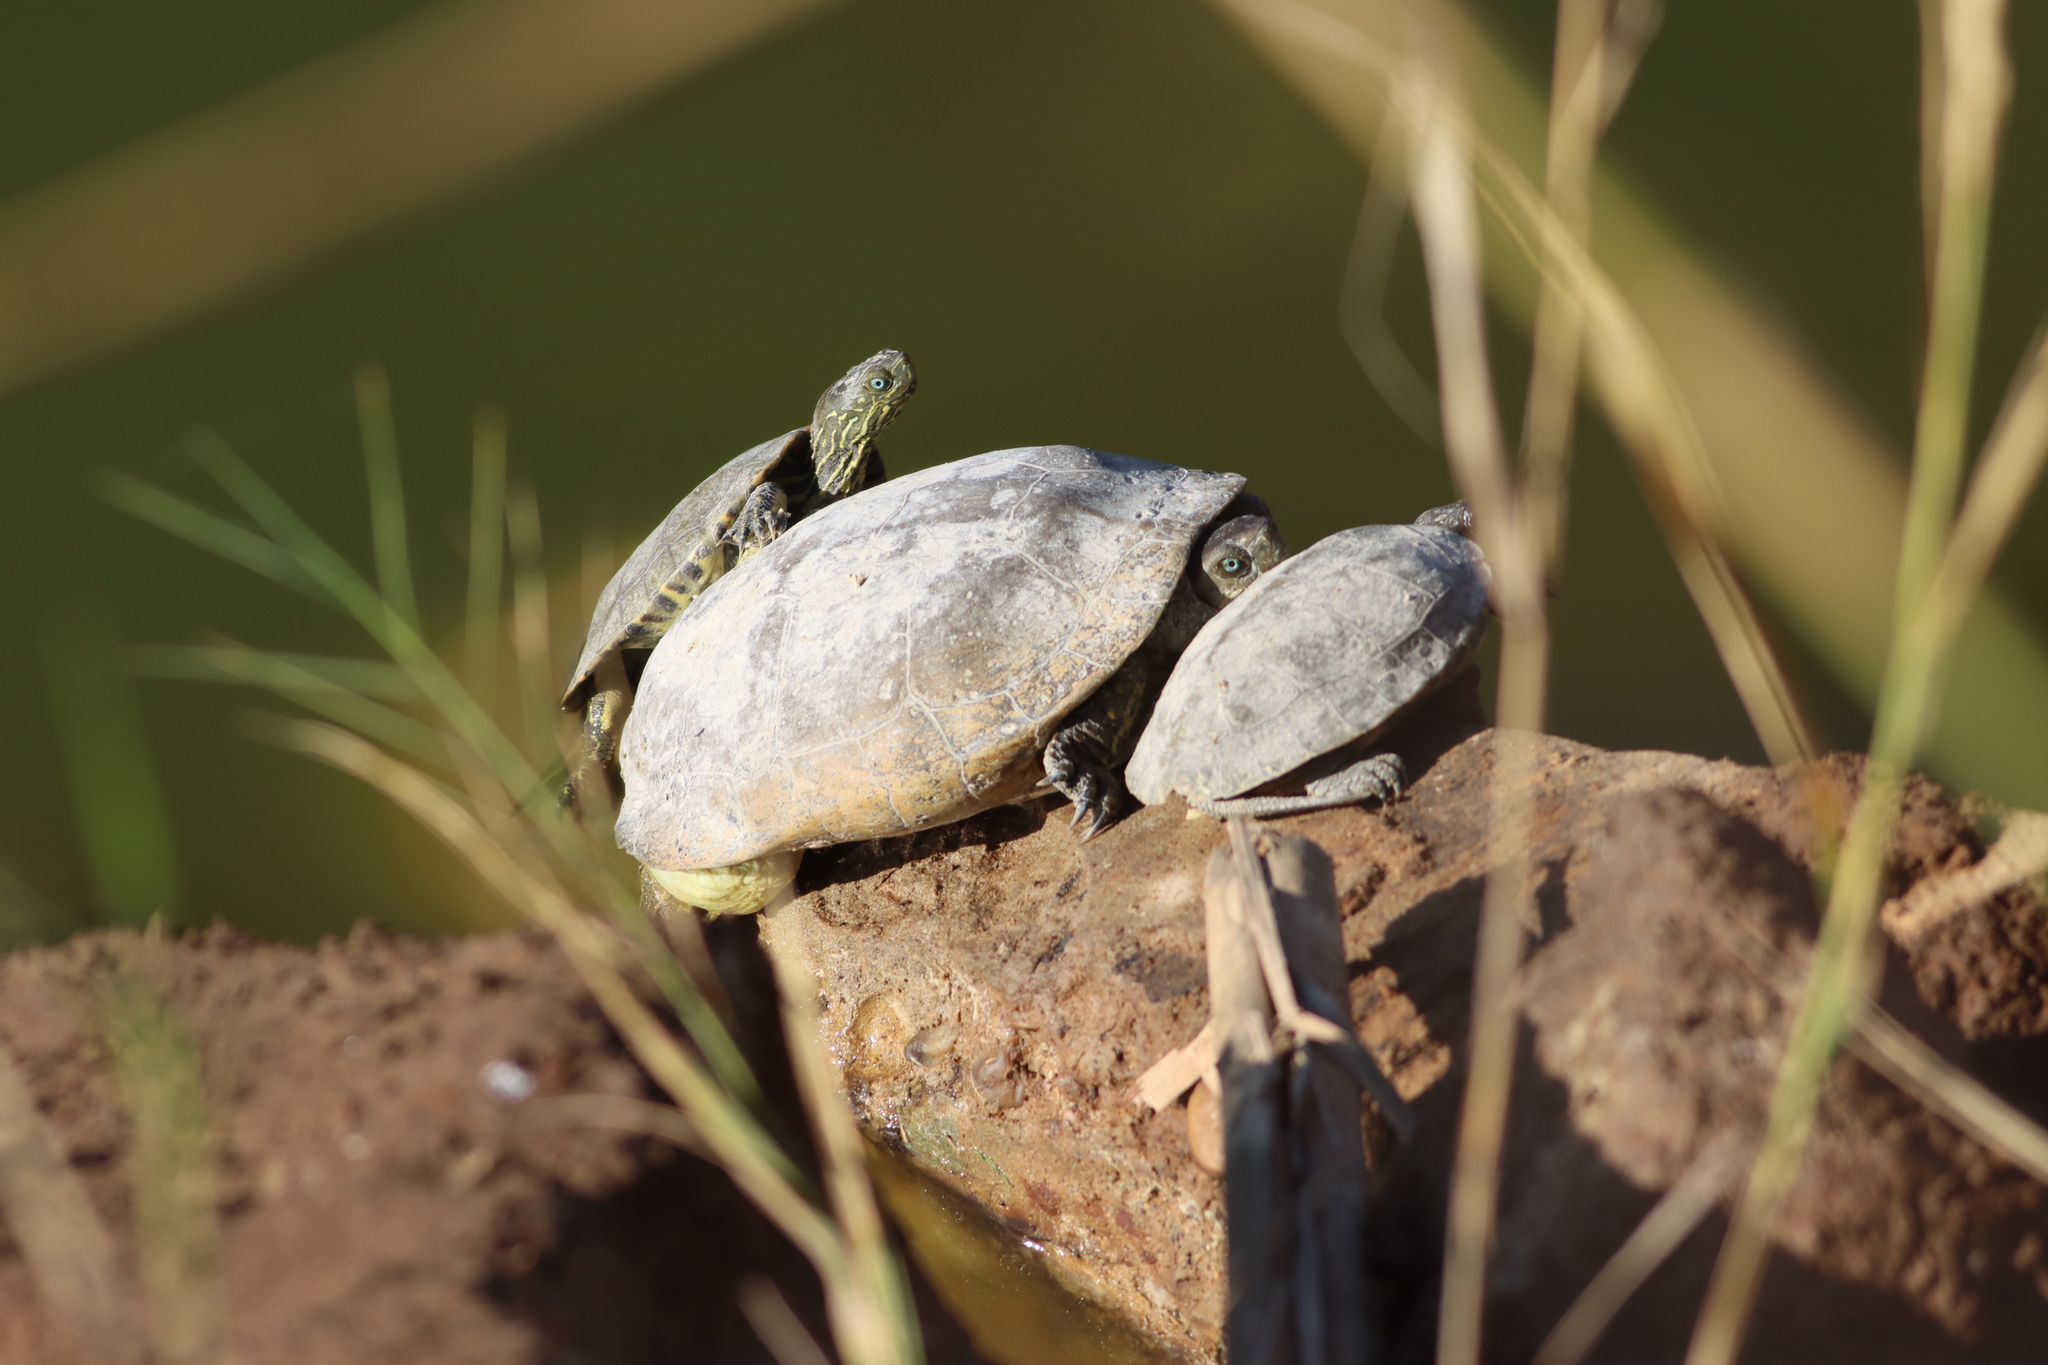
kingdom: Animalia
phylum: Chordata
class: Testudines
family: Geoemydidae
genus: Mauremys
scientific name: Mauremys leprosa
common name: Mediterranean pond turtle
